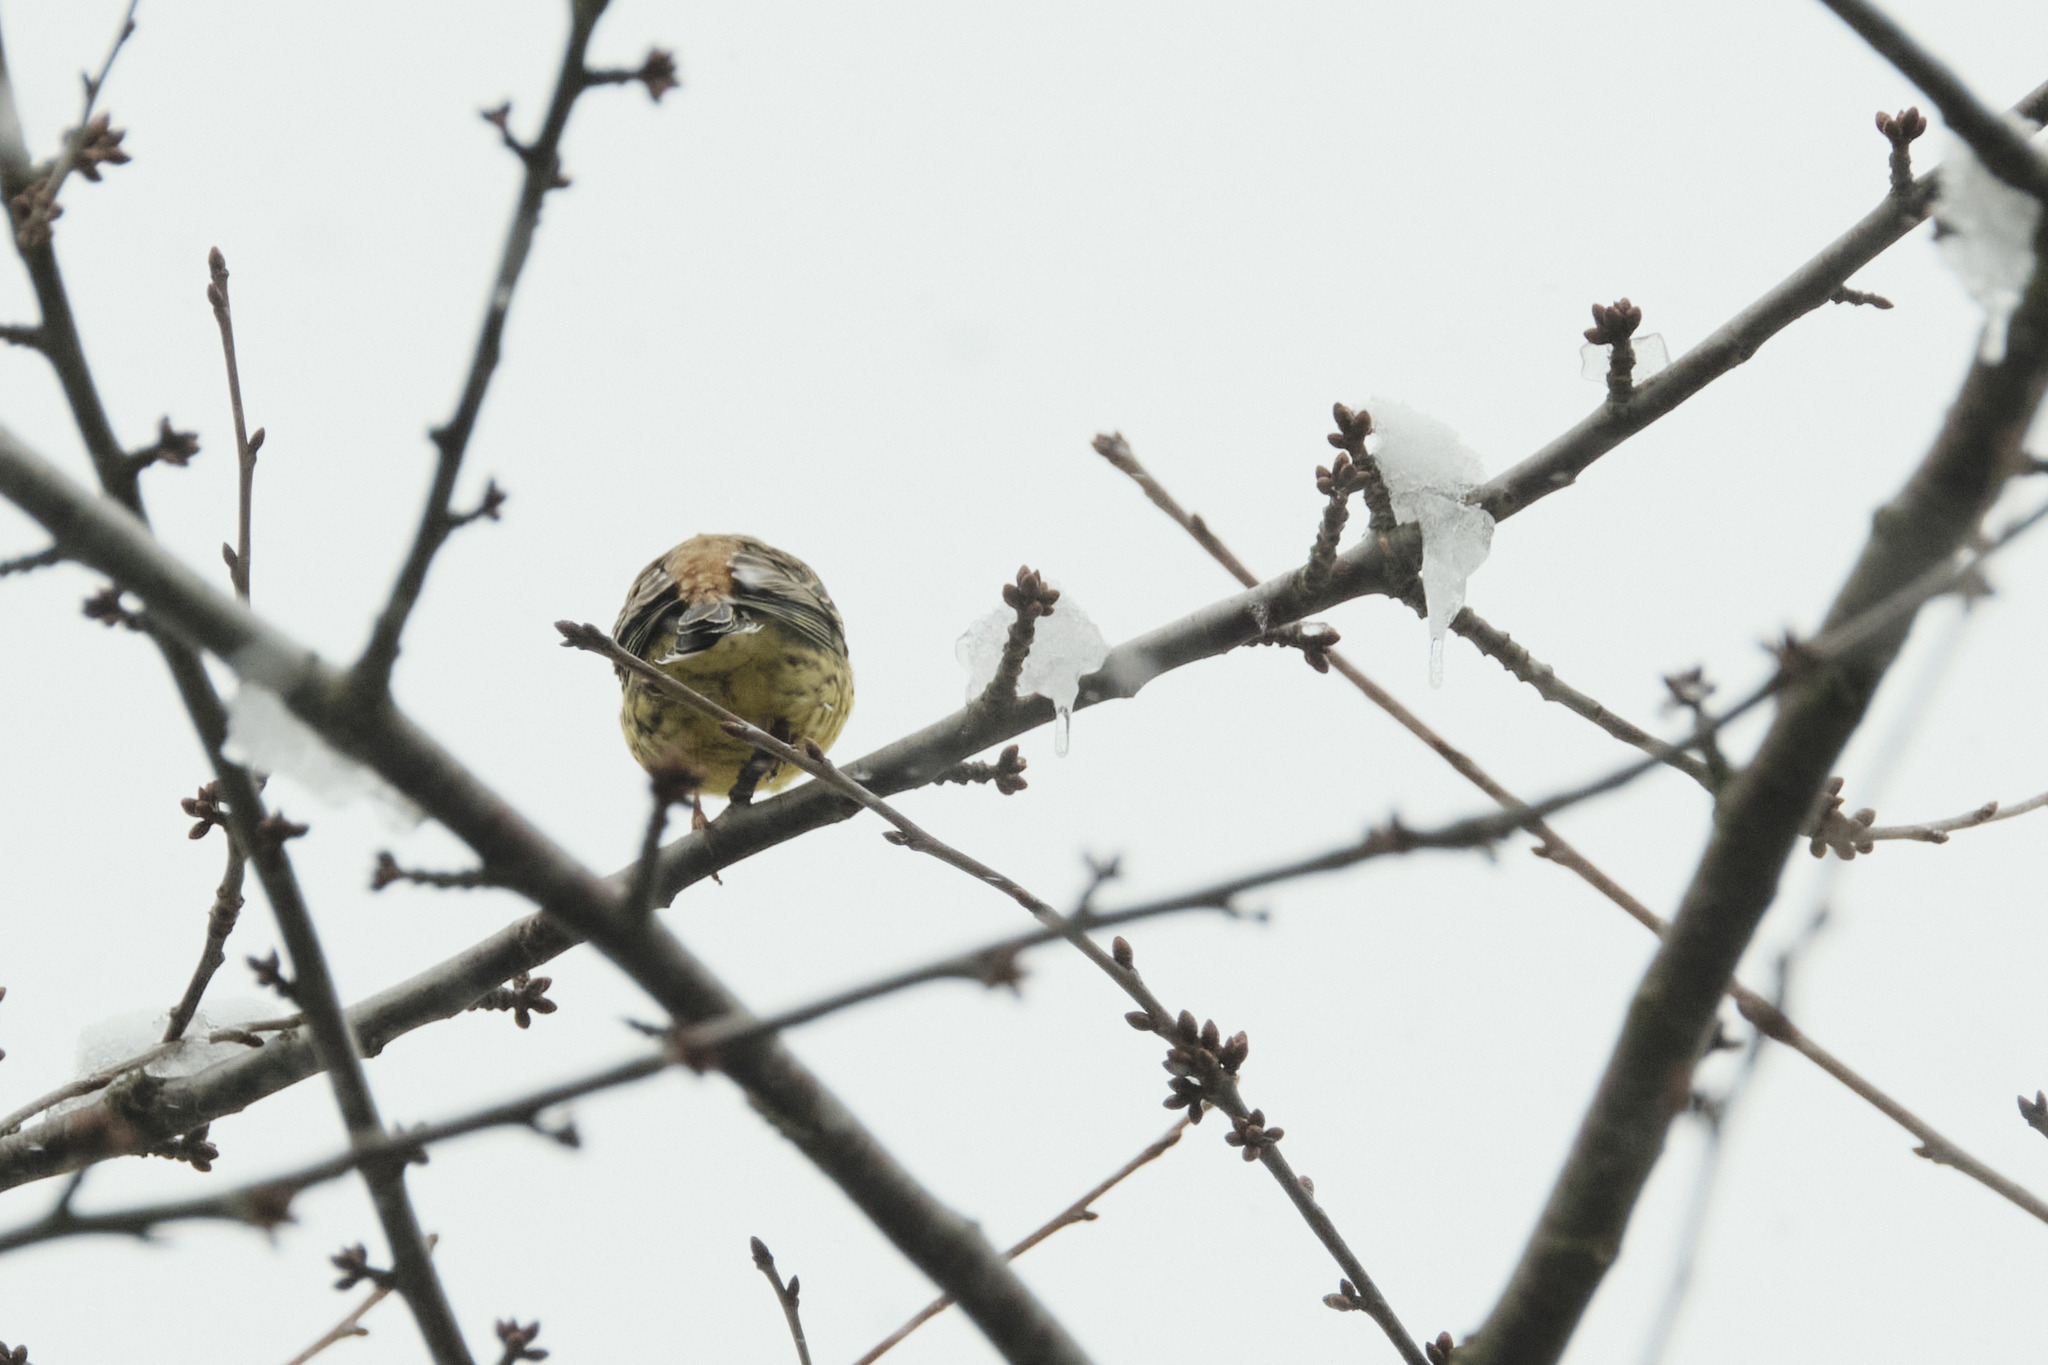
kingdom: Animalia
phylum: Chordata
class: Aves
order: Passeriformes
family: Emberizidae
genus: Emberiza
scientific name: Emberiza citrinella
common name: Yellowhammer
